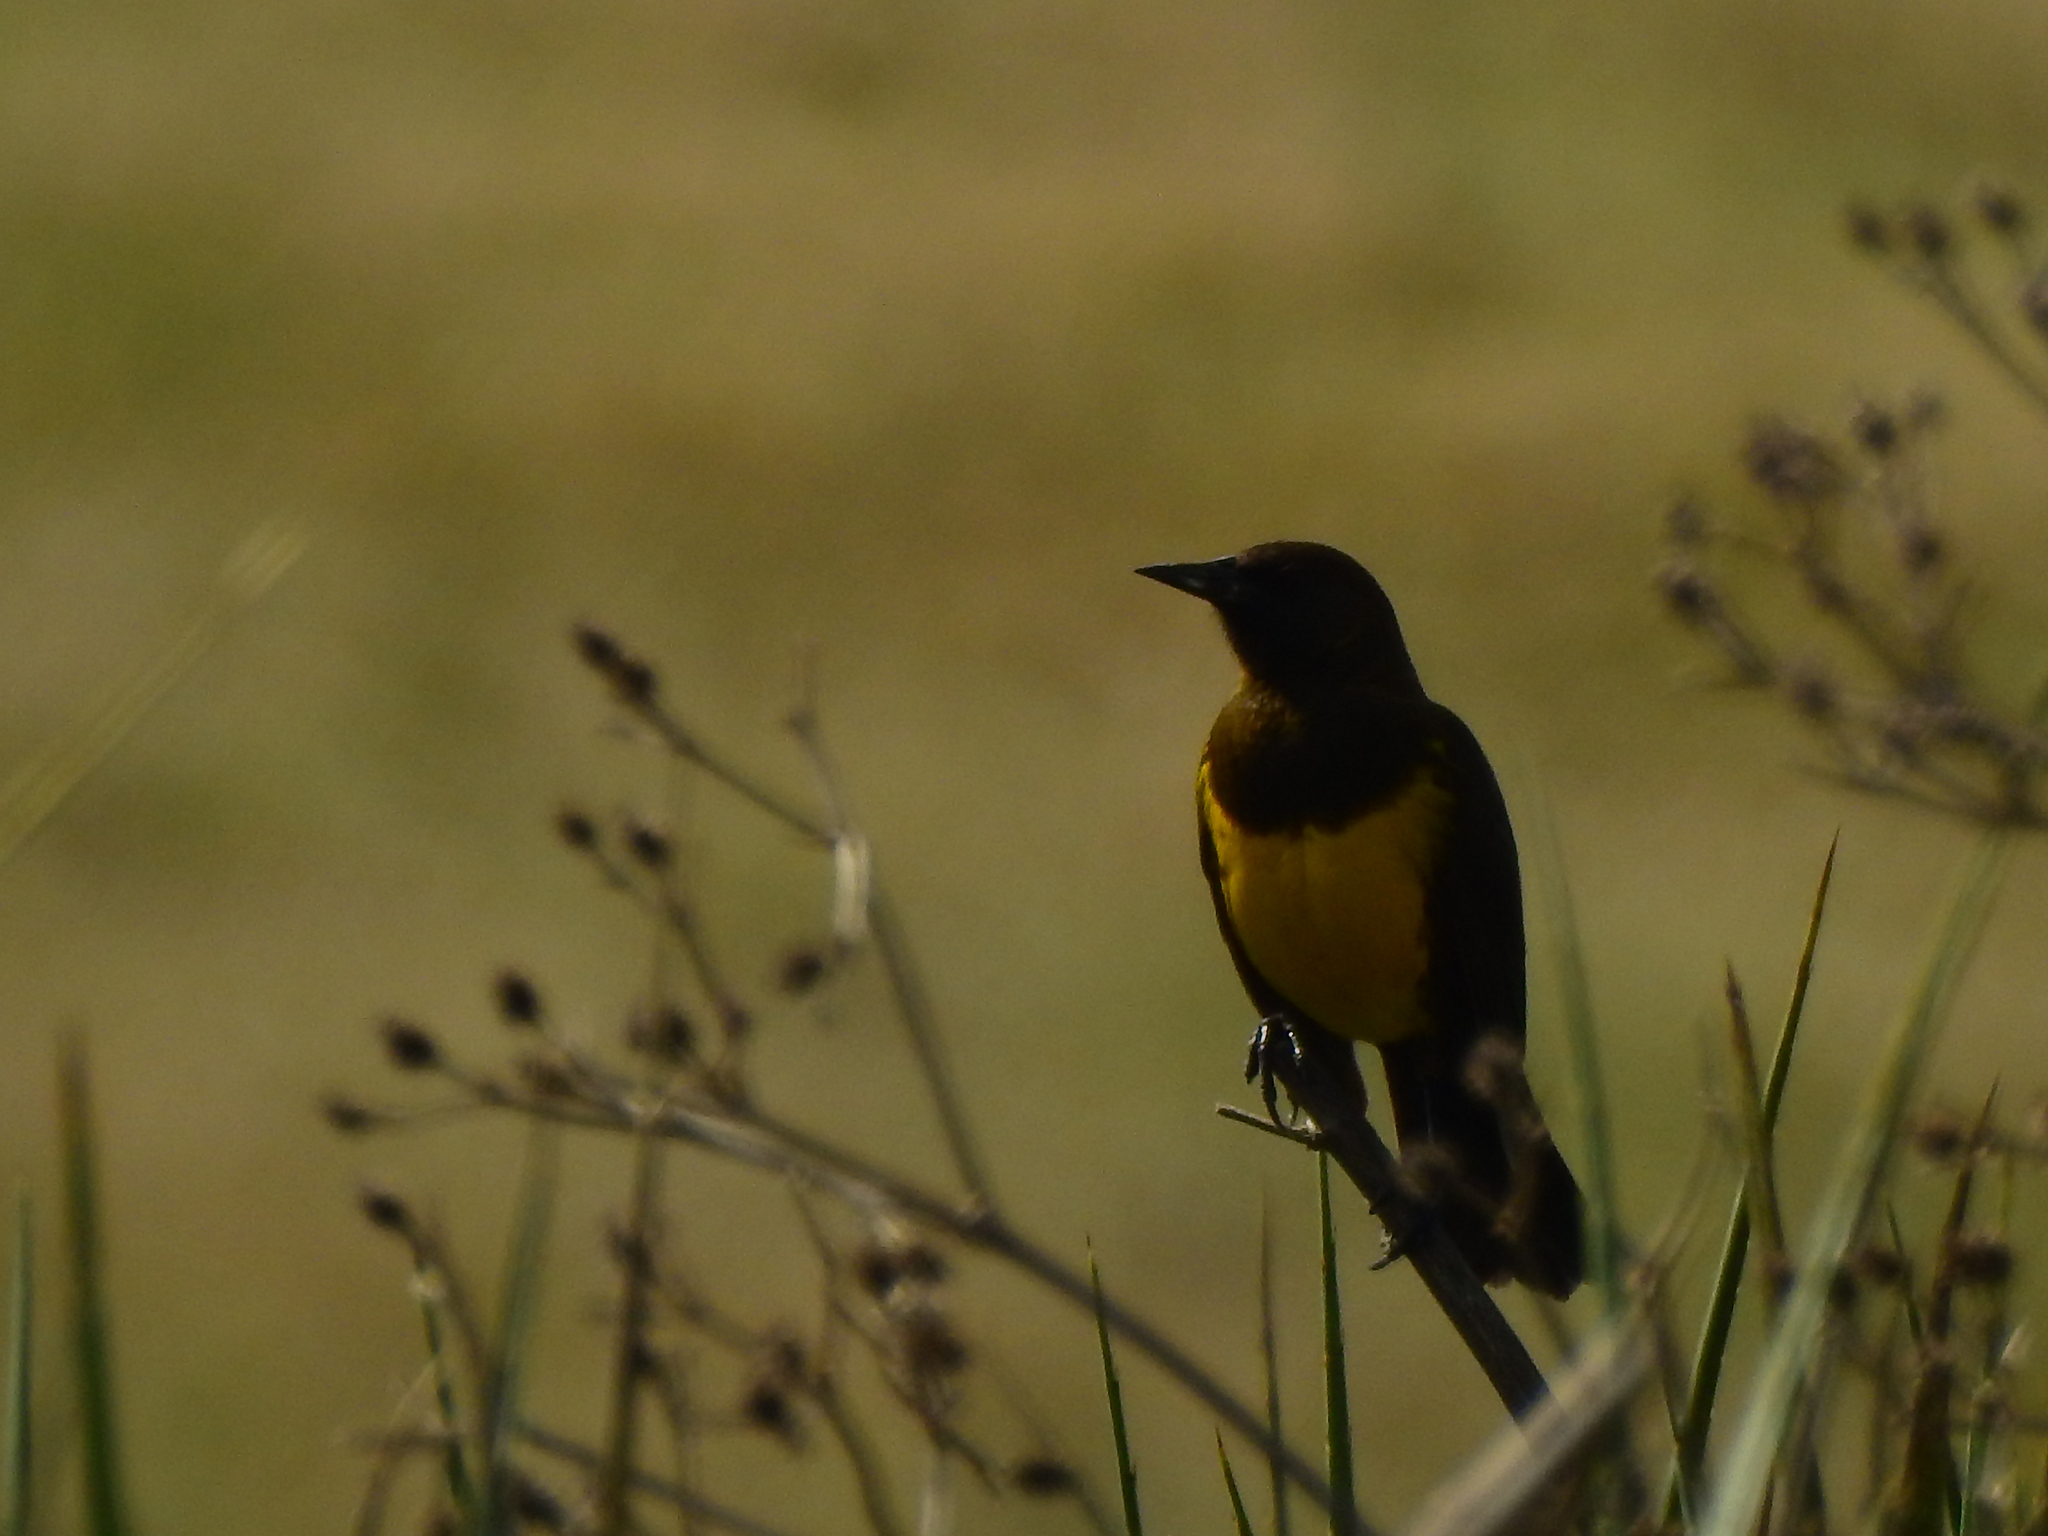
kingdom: Animalia
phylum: Chordata
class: Aves
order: Passeriformes
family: Icteridae
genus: Pseudoleistes
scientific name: Pseudoleistes virescens
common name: Brown-and-yellow marshbird
